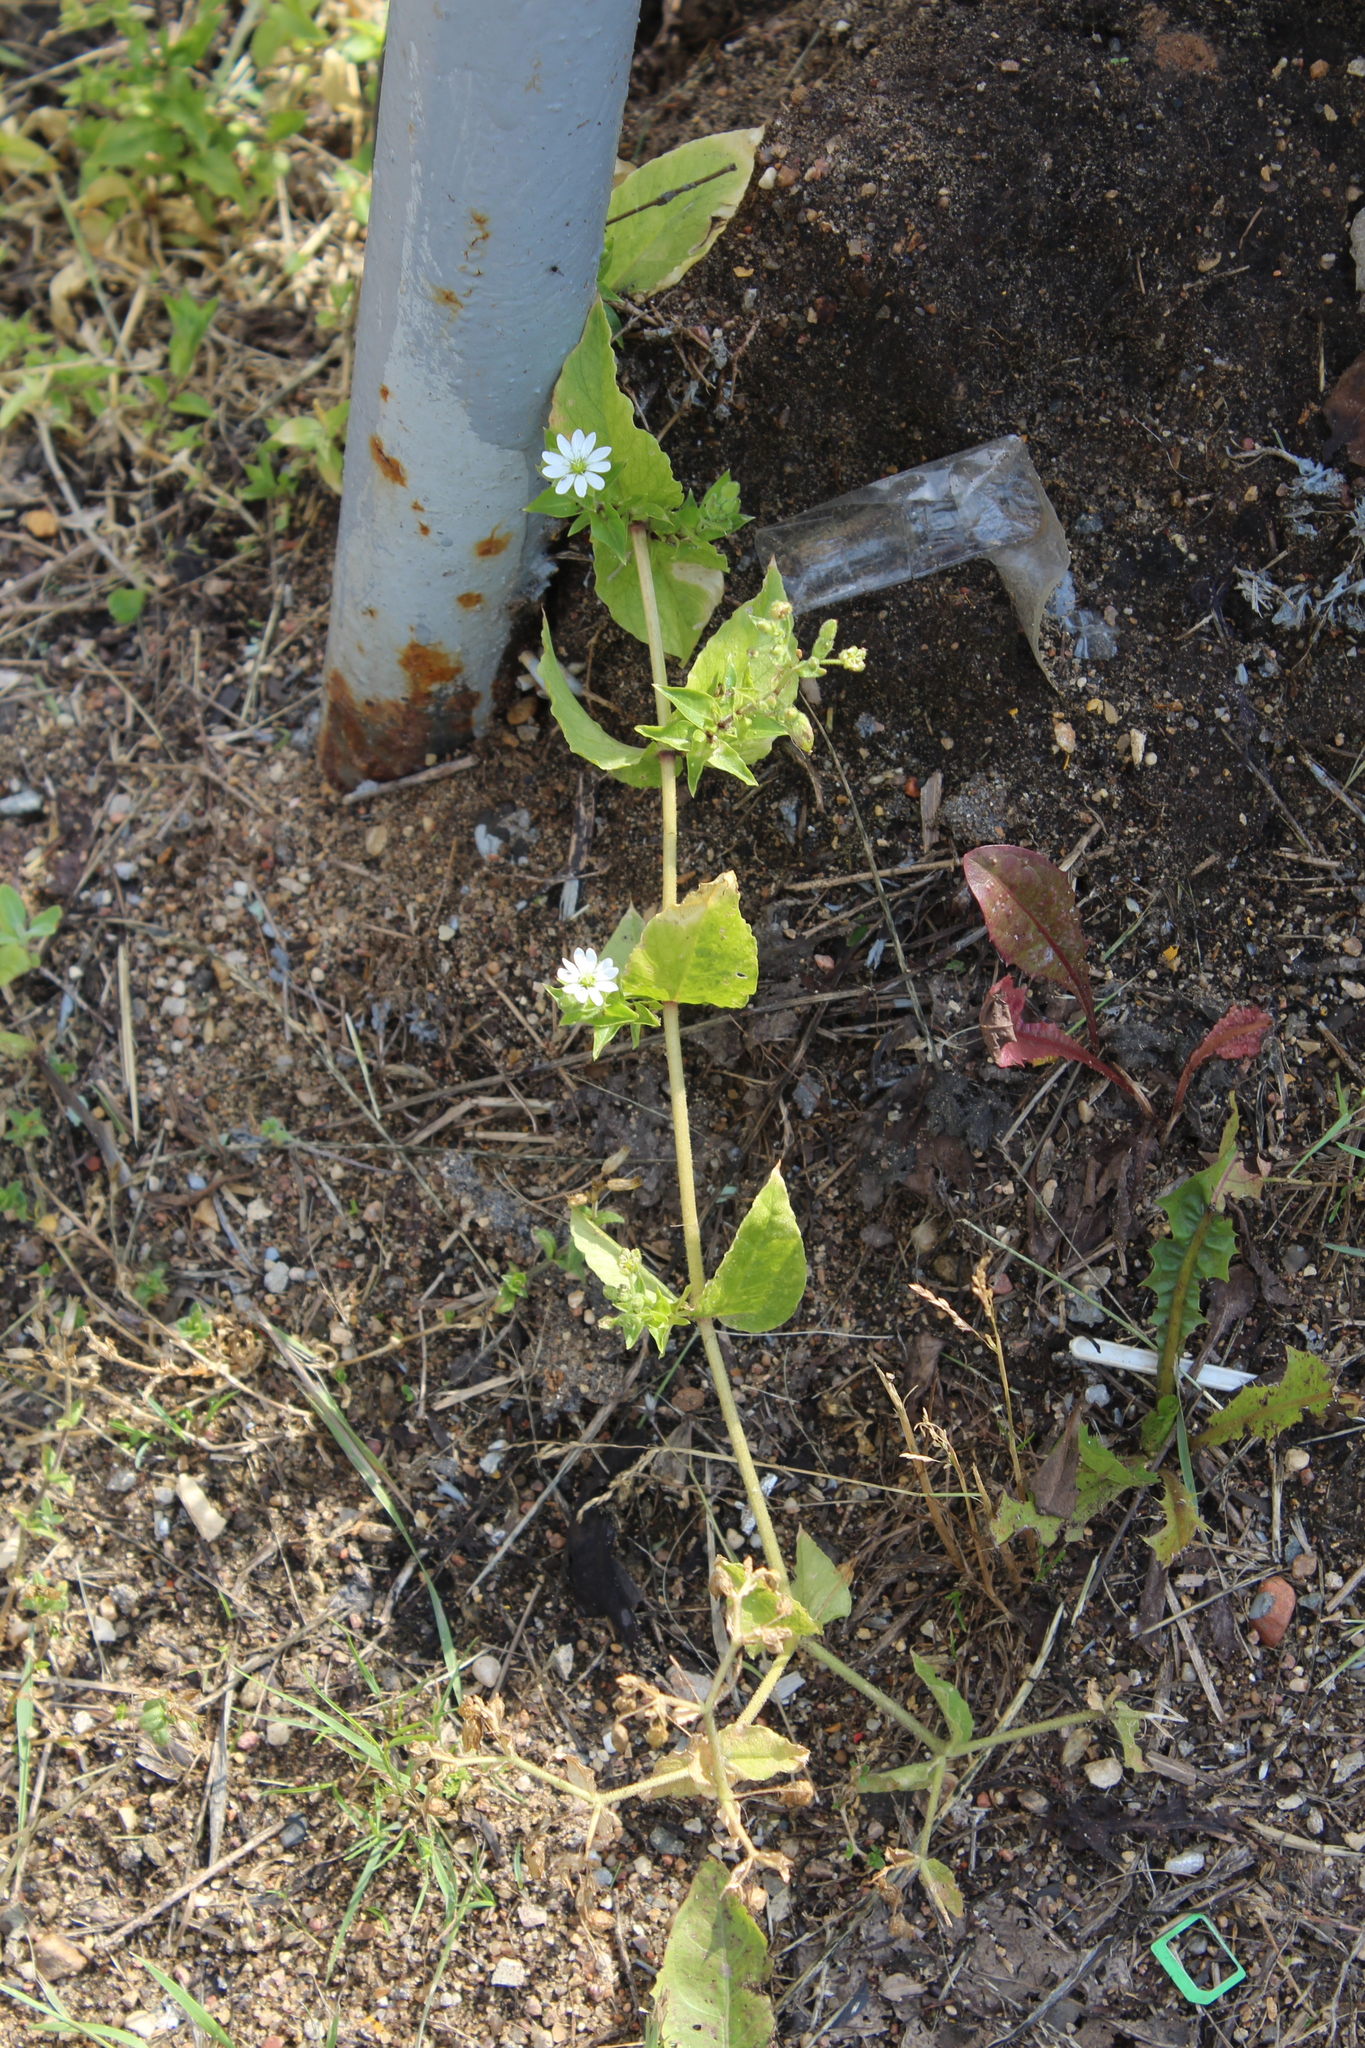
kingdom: Plantae
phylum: Tracheophyta
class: Magnoliopsida
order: Caryophyllales
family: Caryophyllaceae
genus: Stellaria
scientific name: Stellaria aquatica
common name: Water chickweed
